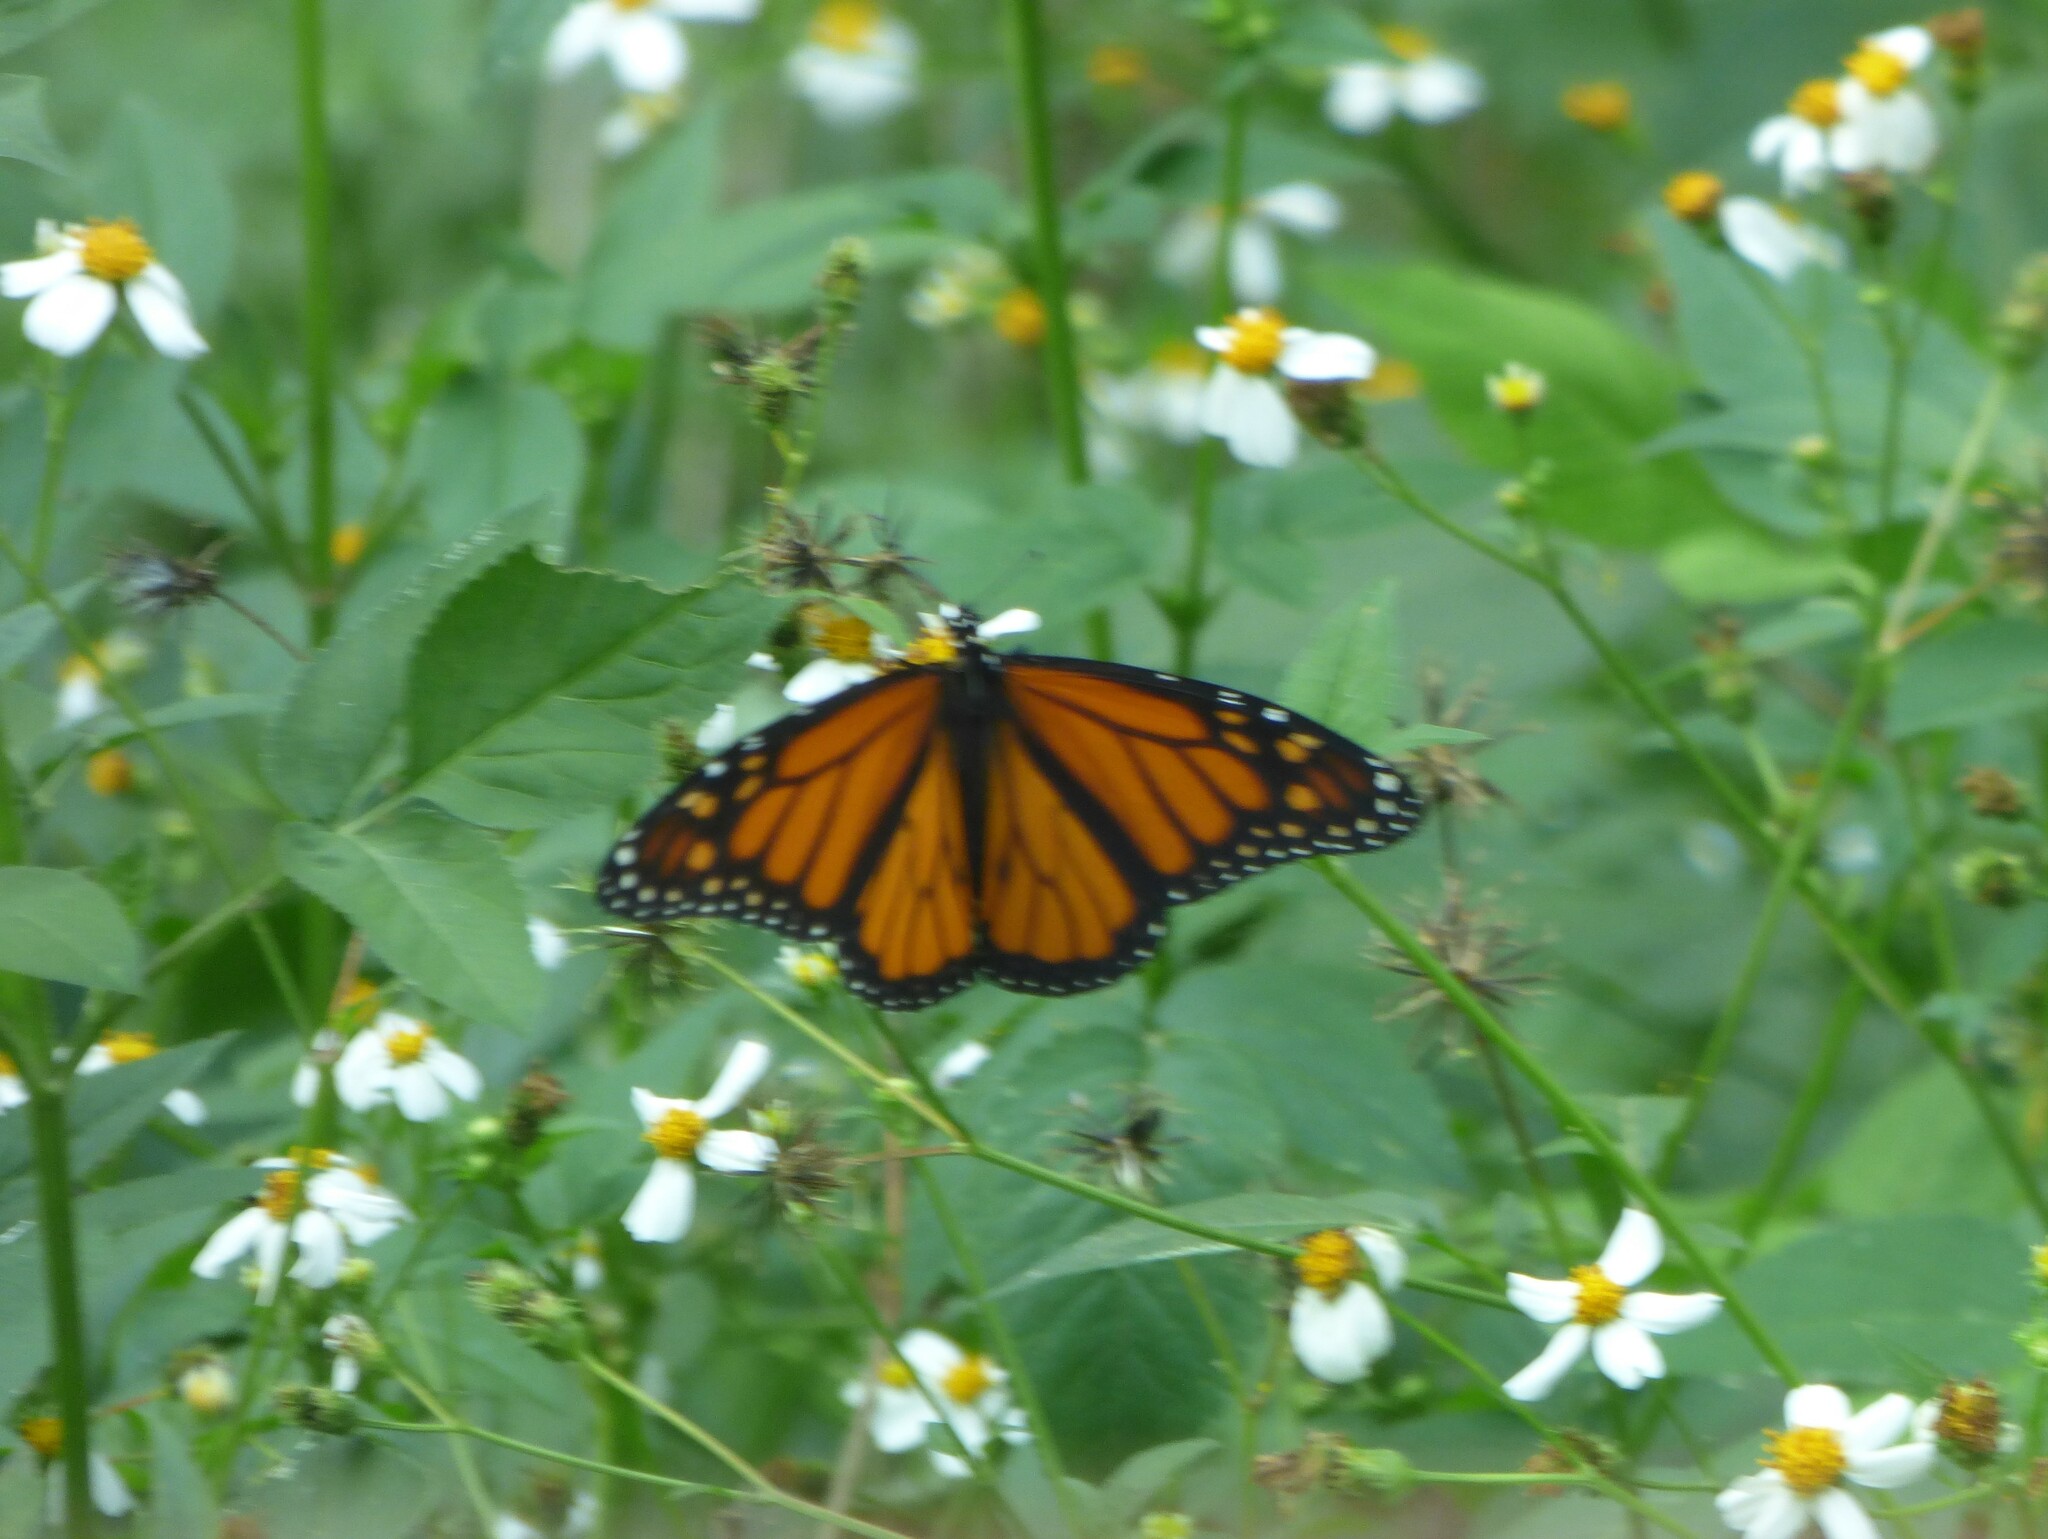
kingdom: Animalia
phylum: Arthropoda
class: Insecta
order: Lepidoptera
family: Nymphalidae
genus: Danaus
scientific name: Danaus plexippus
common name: Monarch
